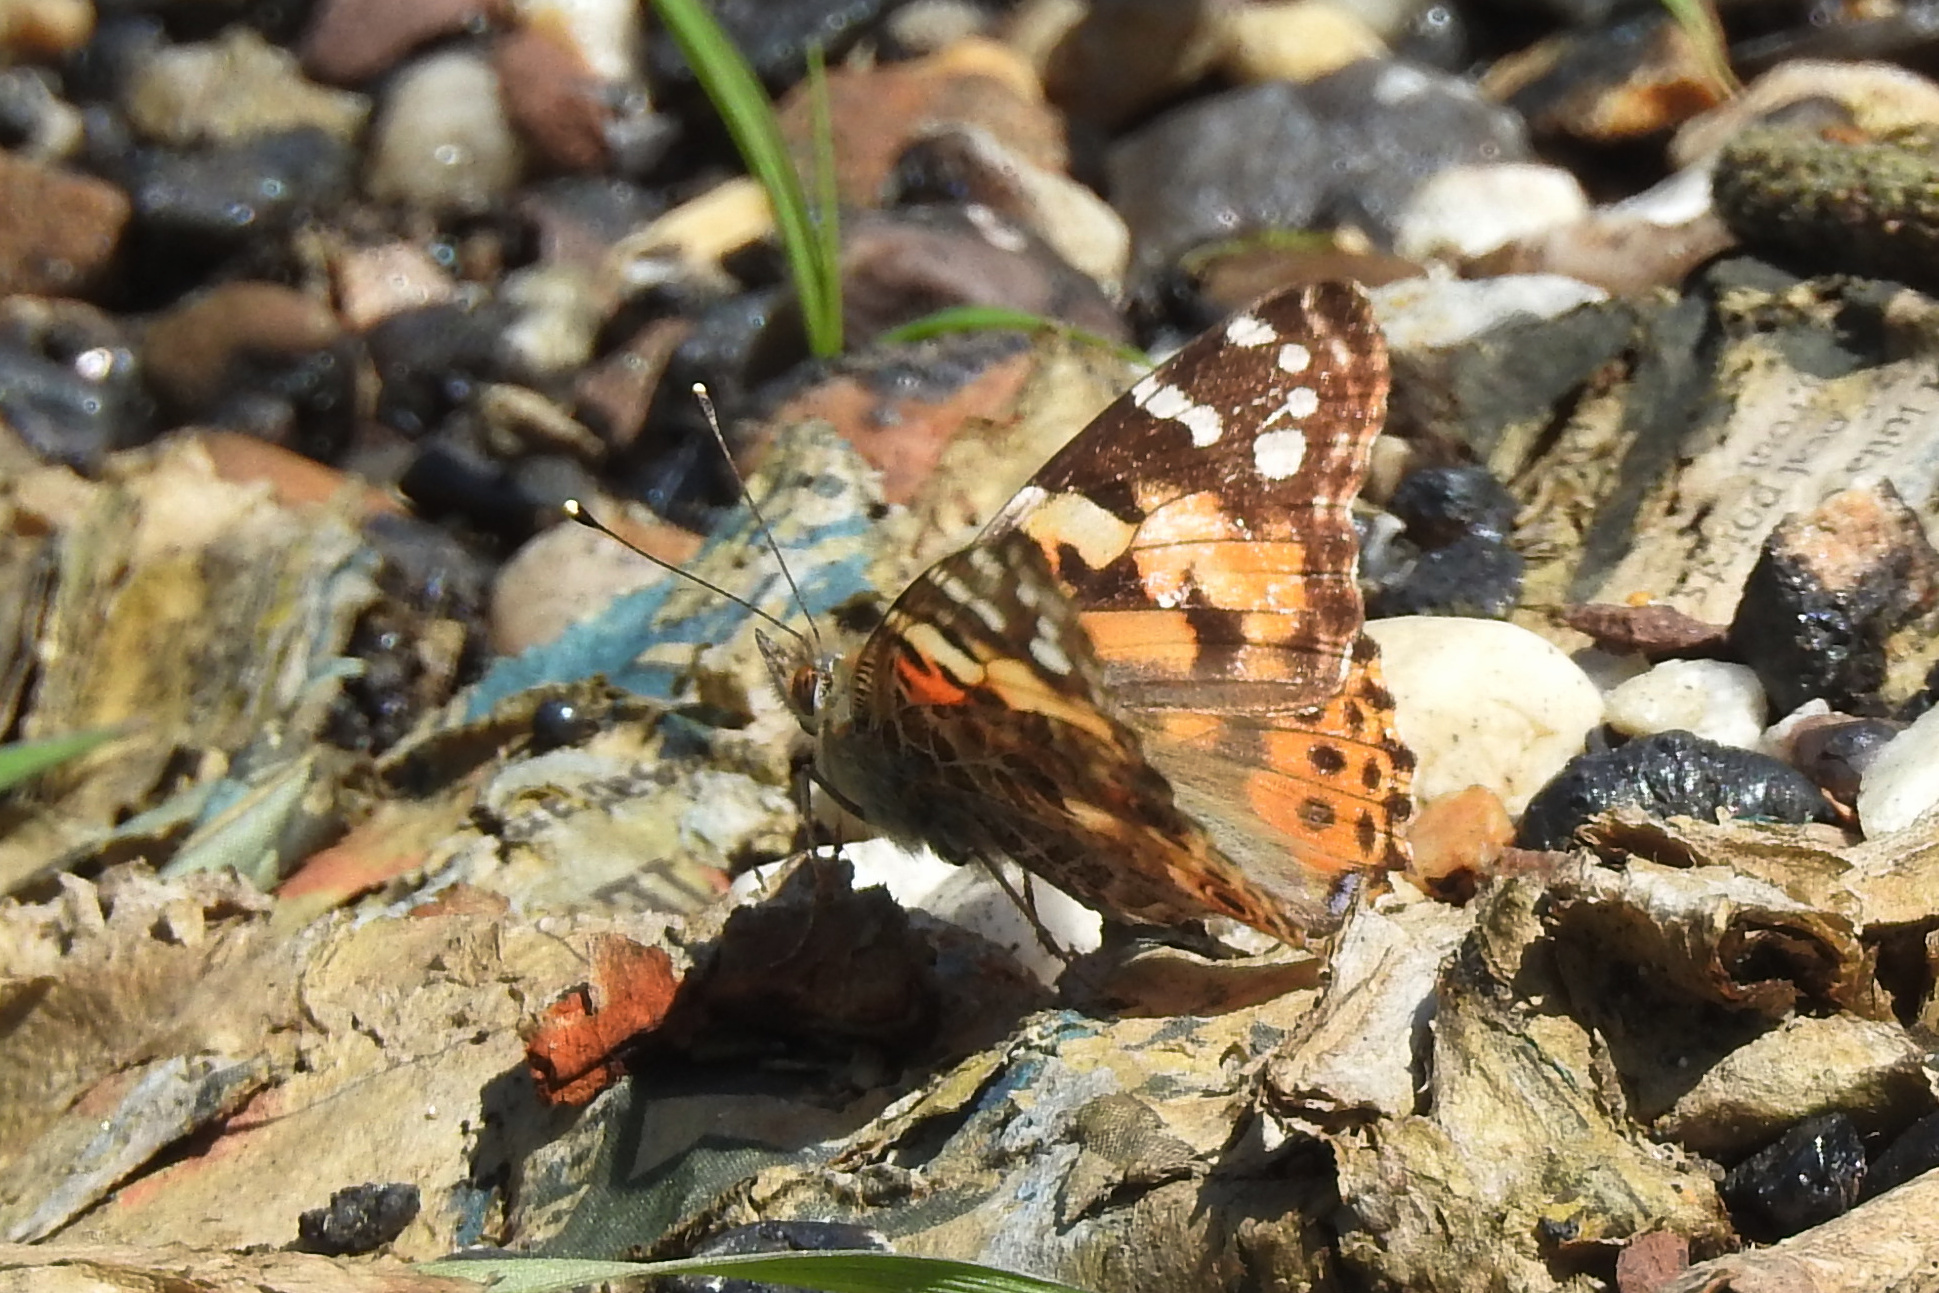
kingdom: Animalia
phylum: Arthropoda
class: Insecta
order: Lepidoptera
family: Nymphalidae
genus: Vanessa
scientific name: Vanessa cardui
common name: Painted lady
